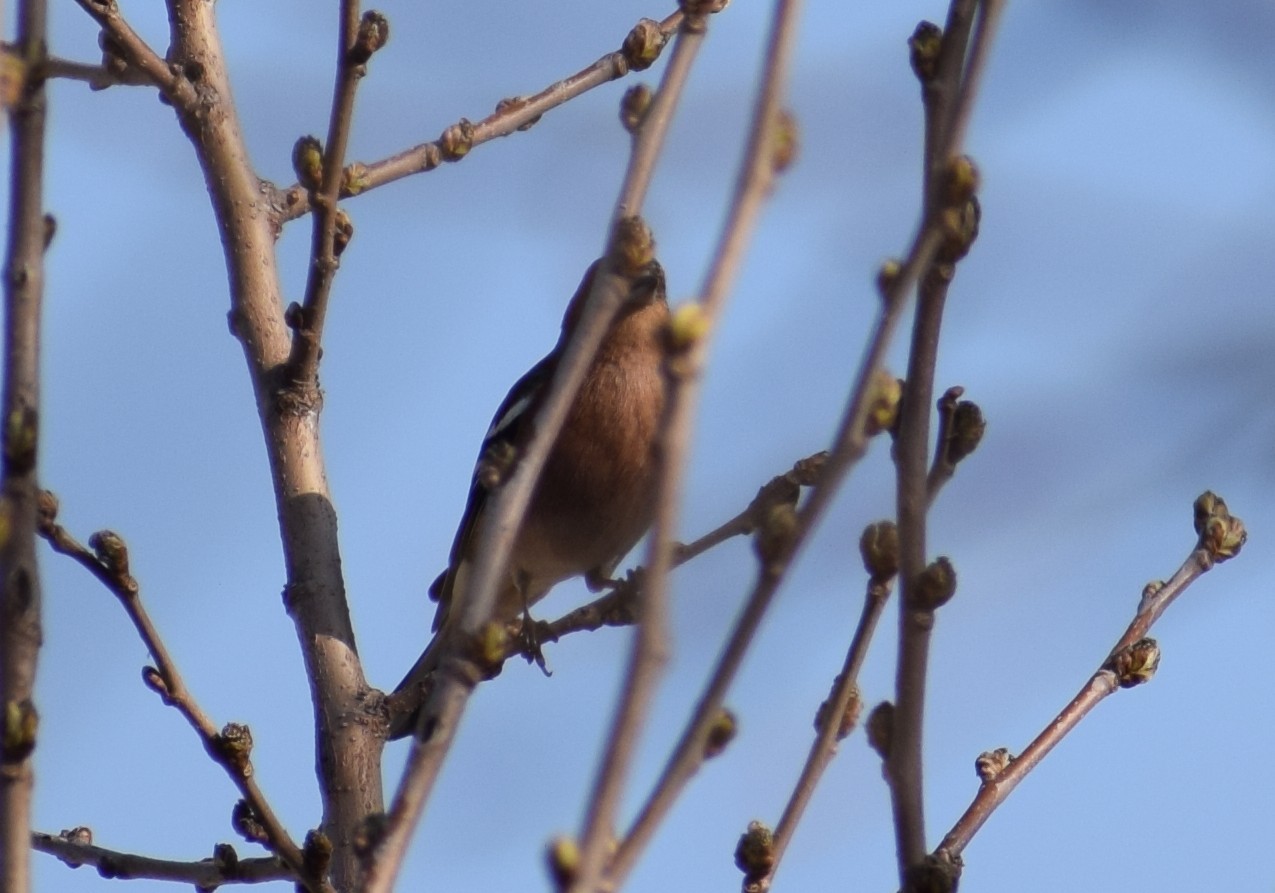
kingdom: Animalia
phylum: Chordata
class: Aves
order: Passeriformes
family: Fringillidae
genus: Fringilla
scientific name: Fringilla coelebs
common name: Common chaffinch
